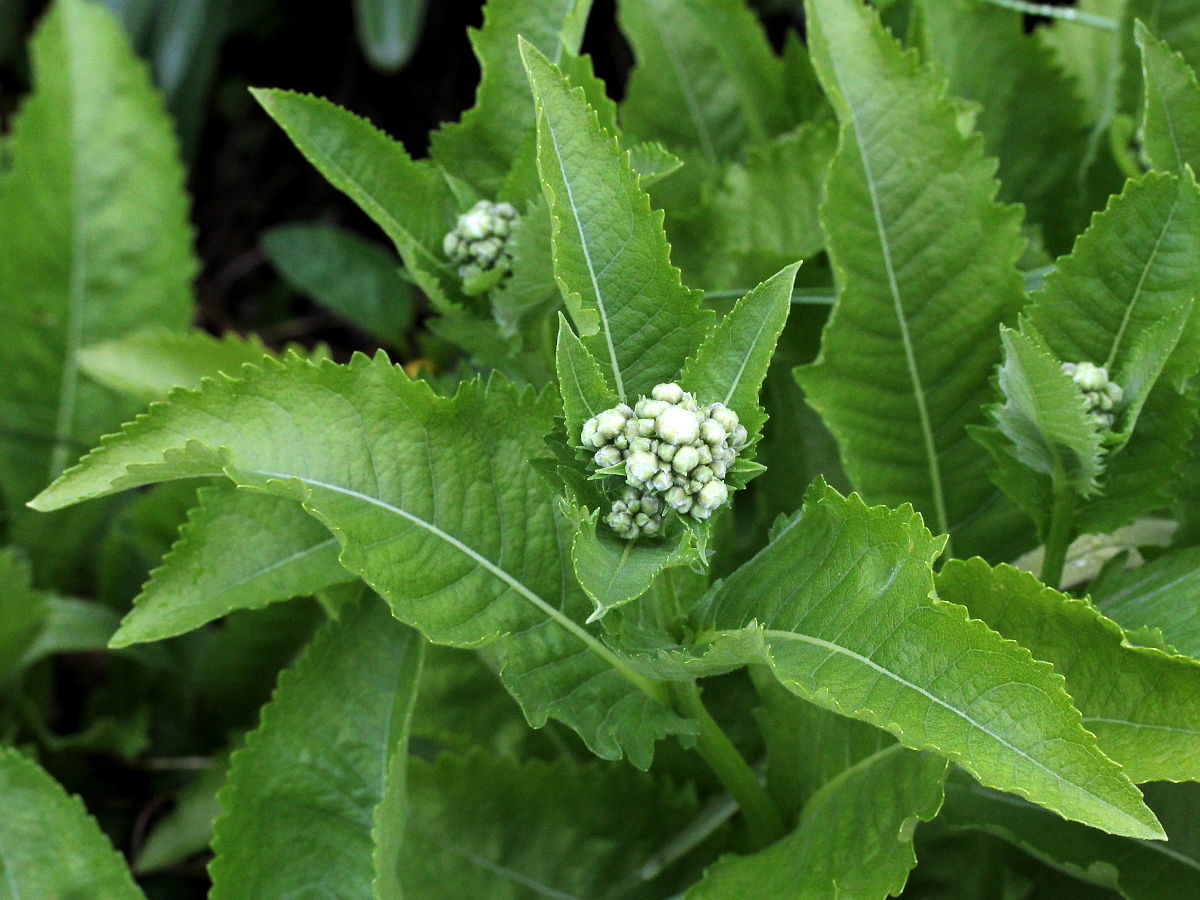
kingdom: Plantae
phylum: Tracheophyta
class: Magnoliopsida
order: Asterales
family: Asteraceae
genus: Parthenium
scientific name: Parthenium integrifolium
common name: American feverfew
